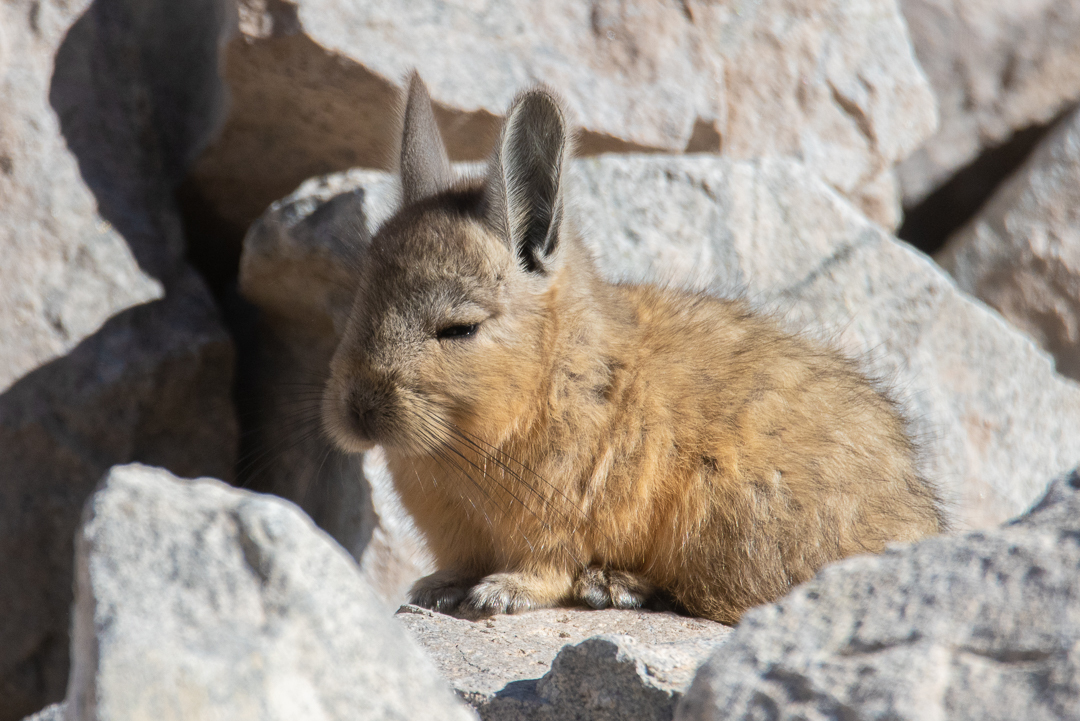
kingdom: Animalia
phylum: Chordata
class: Mammalia
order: Rodentia
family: Chinchillidae
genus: Lagidium
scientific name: Lagidium viscacia
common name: Southern viscacha
